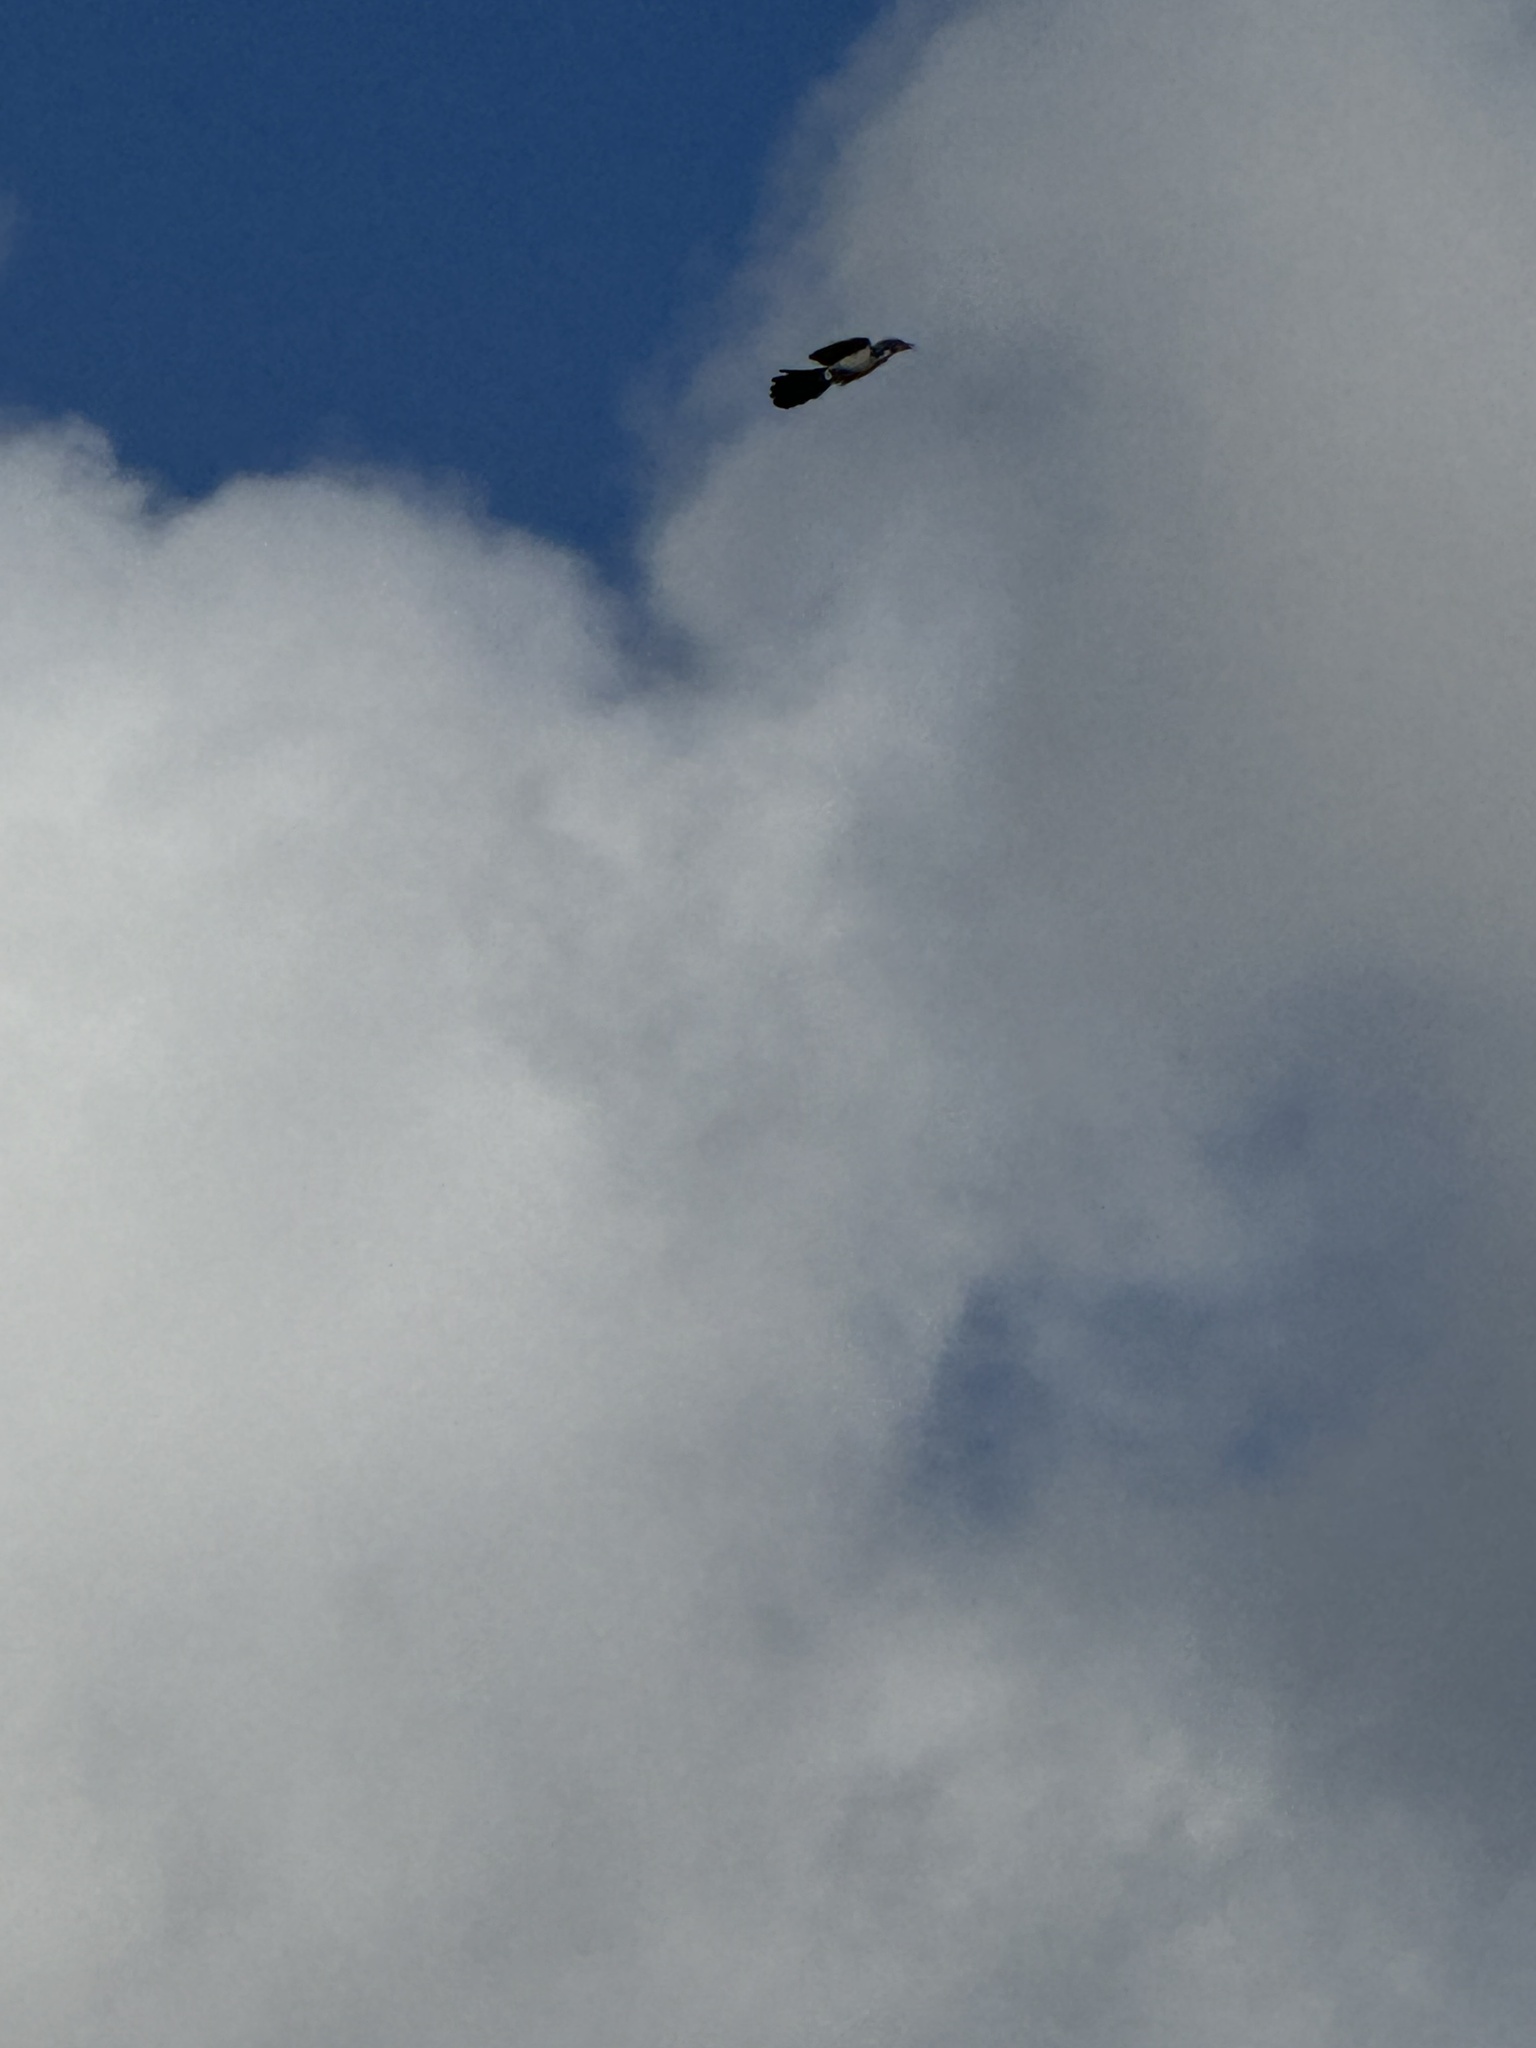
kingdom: Animalia
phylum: Chordata
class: Aves
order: Passeriformes
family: Corvidae
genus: Aphelocoma
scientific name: Aphelocoma californica
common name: California scrub-jay
